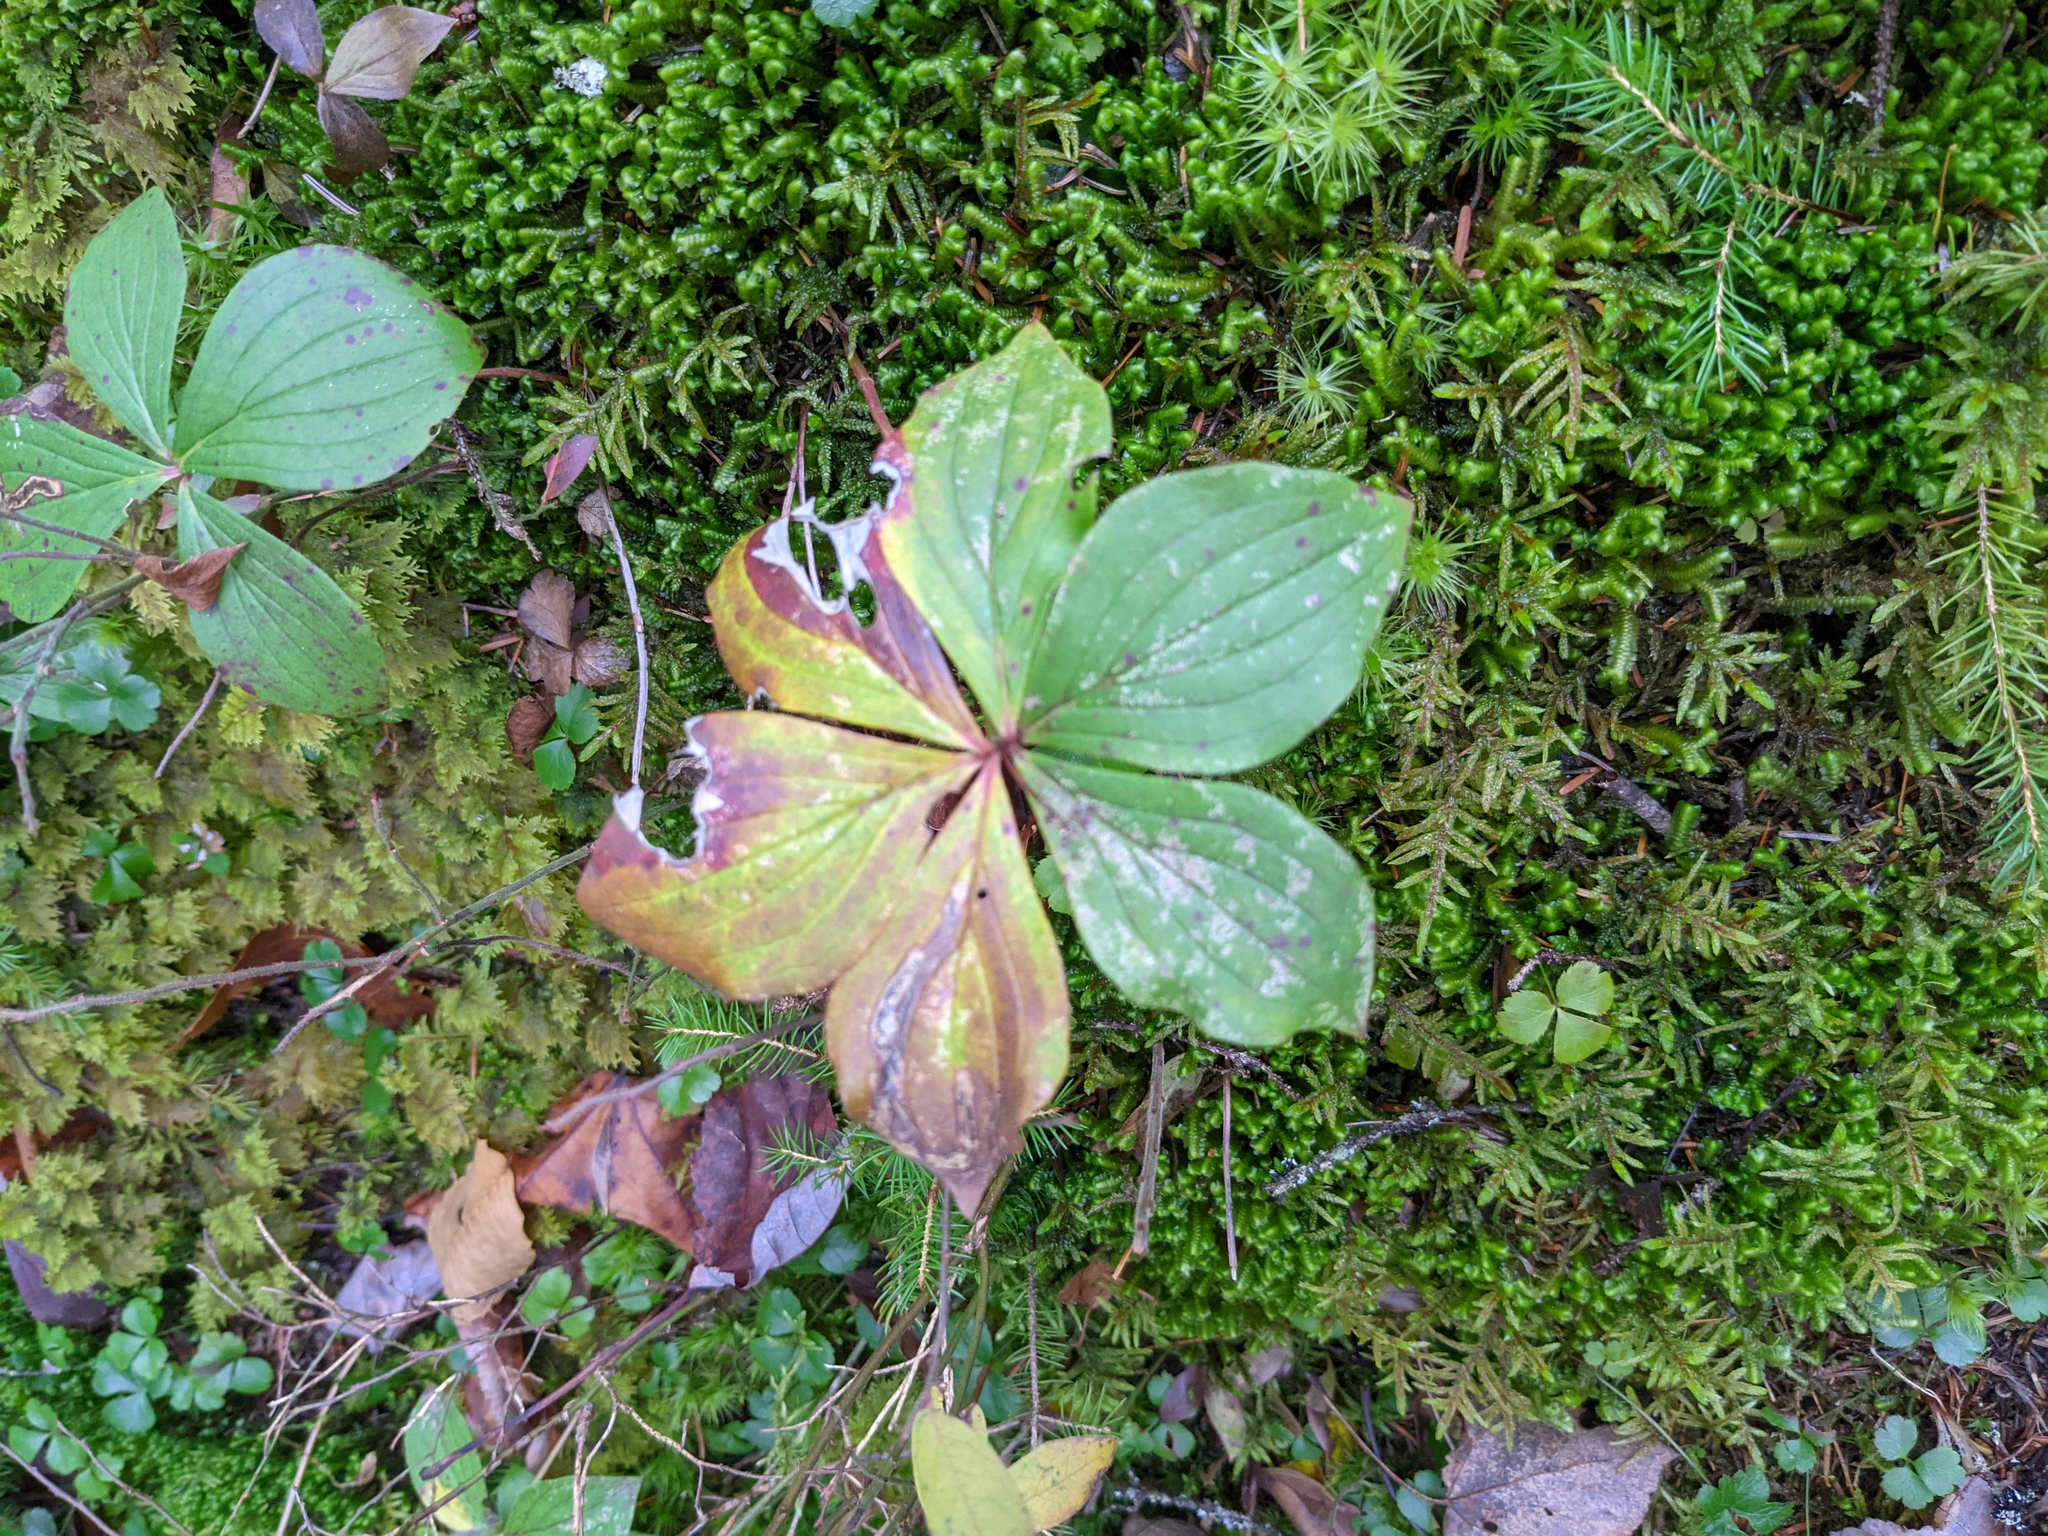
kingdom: Plantae
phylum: Tracheophyta
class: Magnoliopsida
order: Cornales
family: Cornaceae
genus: Cornus
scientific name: Cornus canadensis
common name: Creeping dogwood
